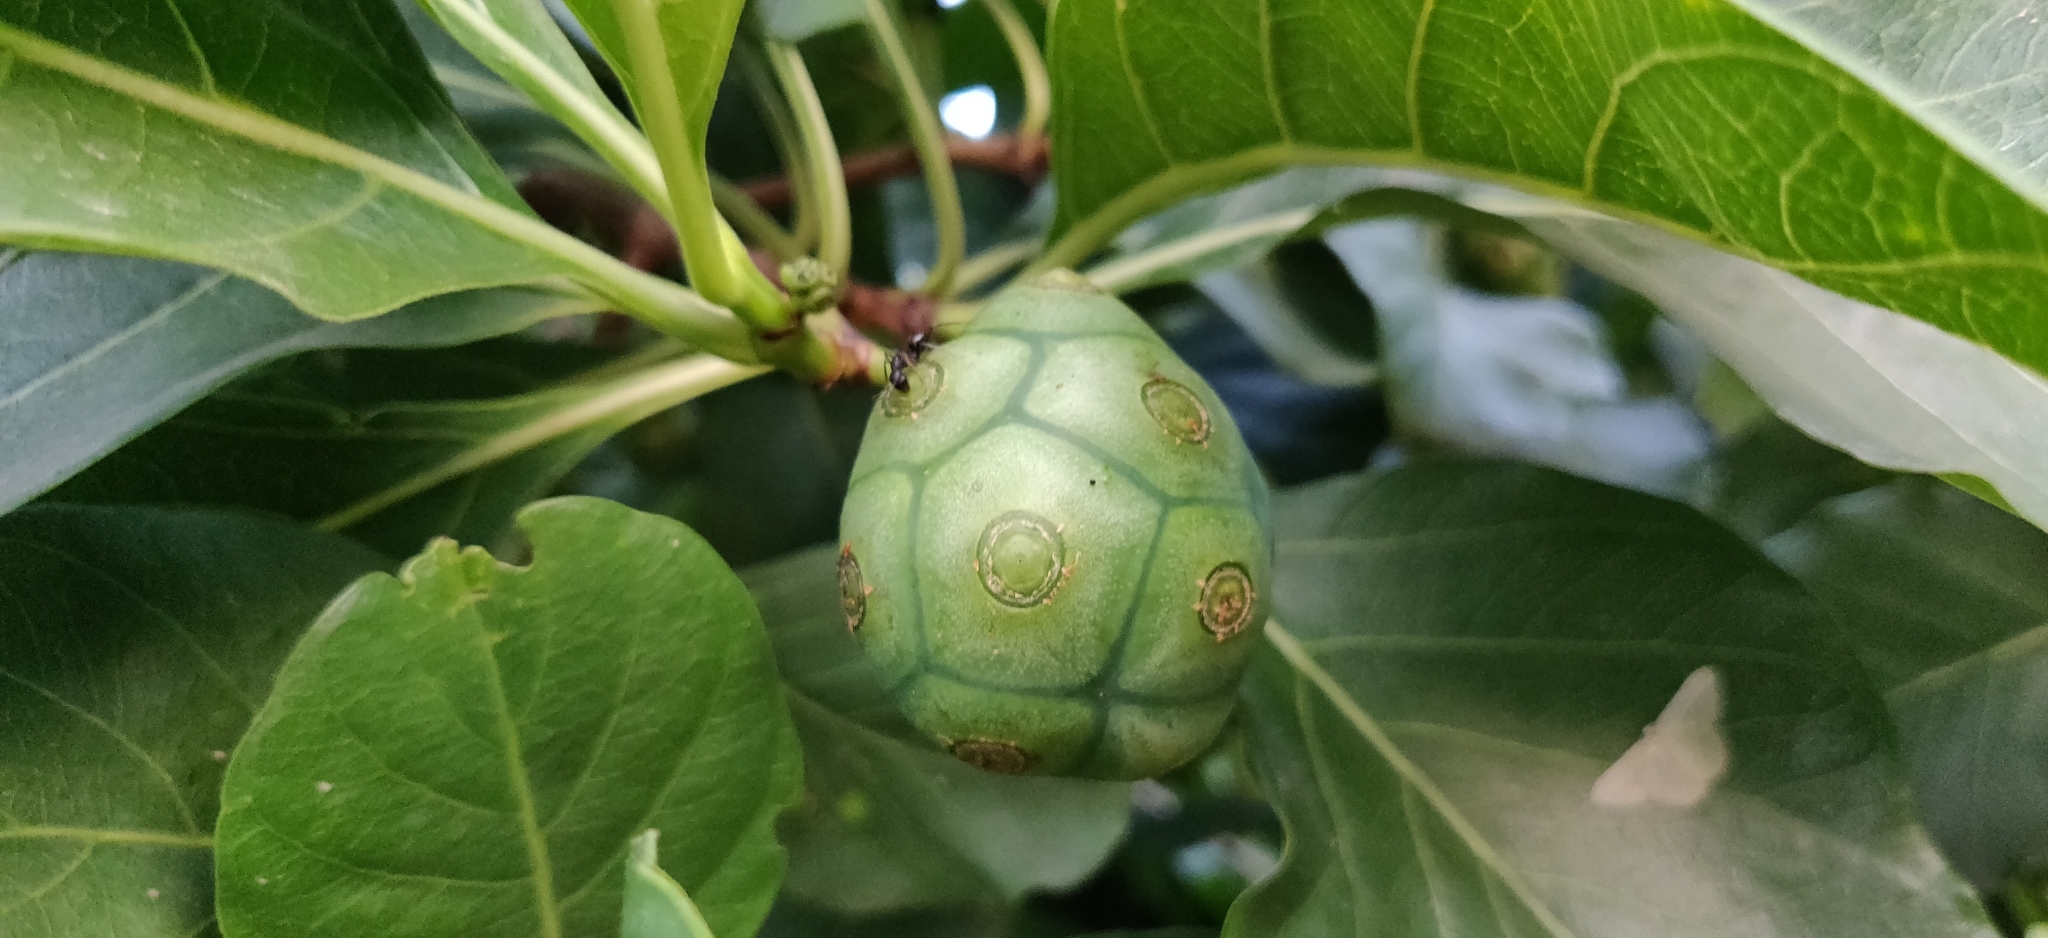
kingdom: Plantae
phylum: Tracheophyta
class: Magnoliopsida
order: Gentianales
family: Rubiaceae
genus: Morinda
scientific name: Morinda coreia
